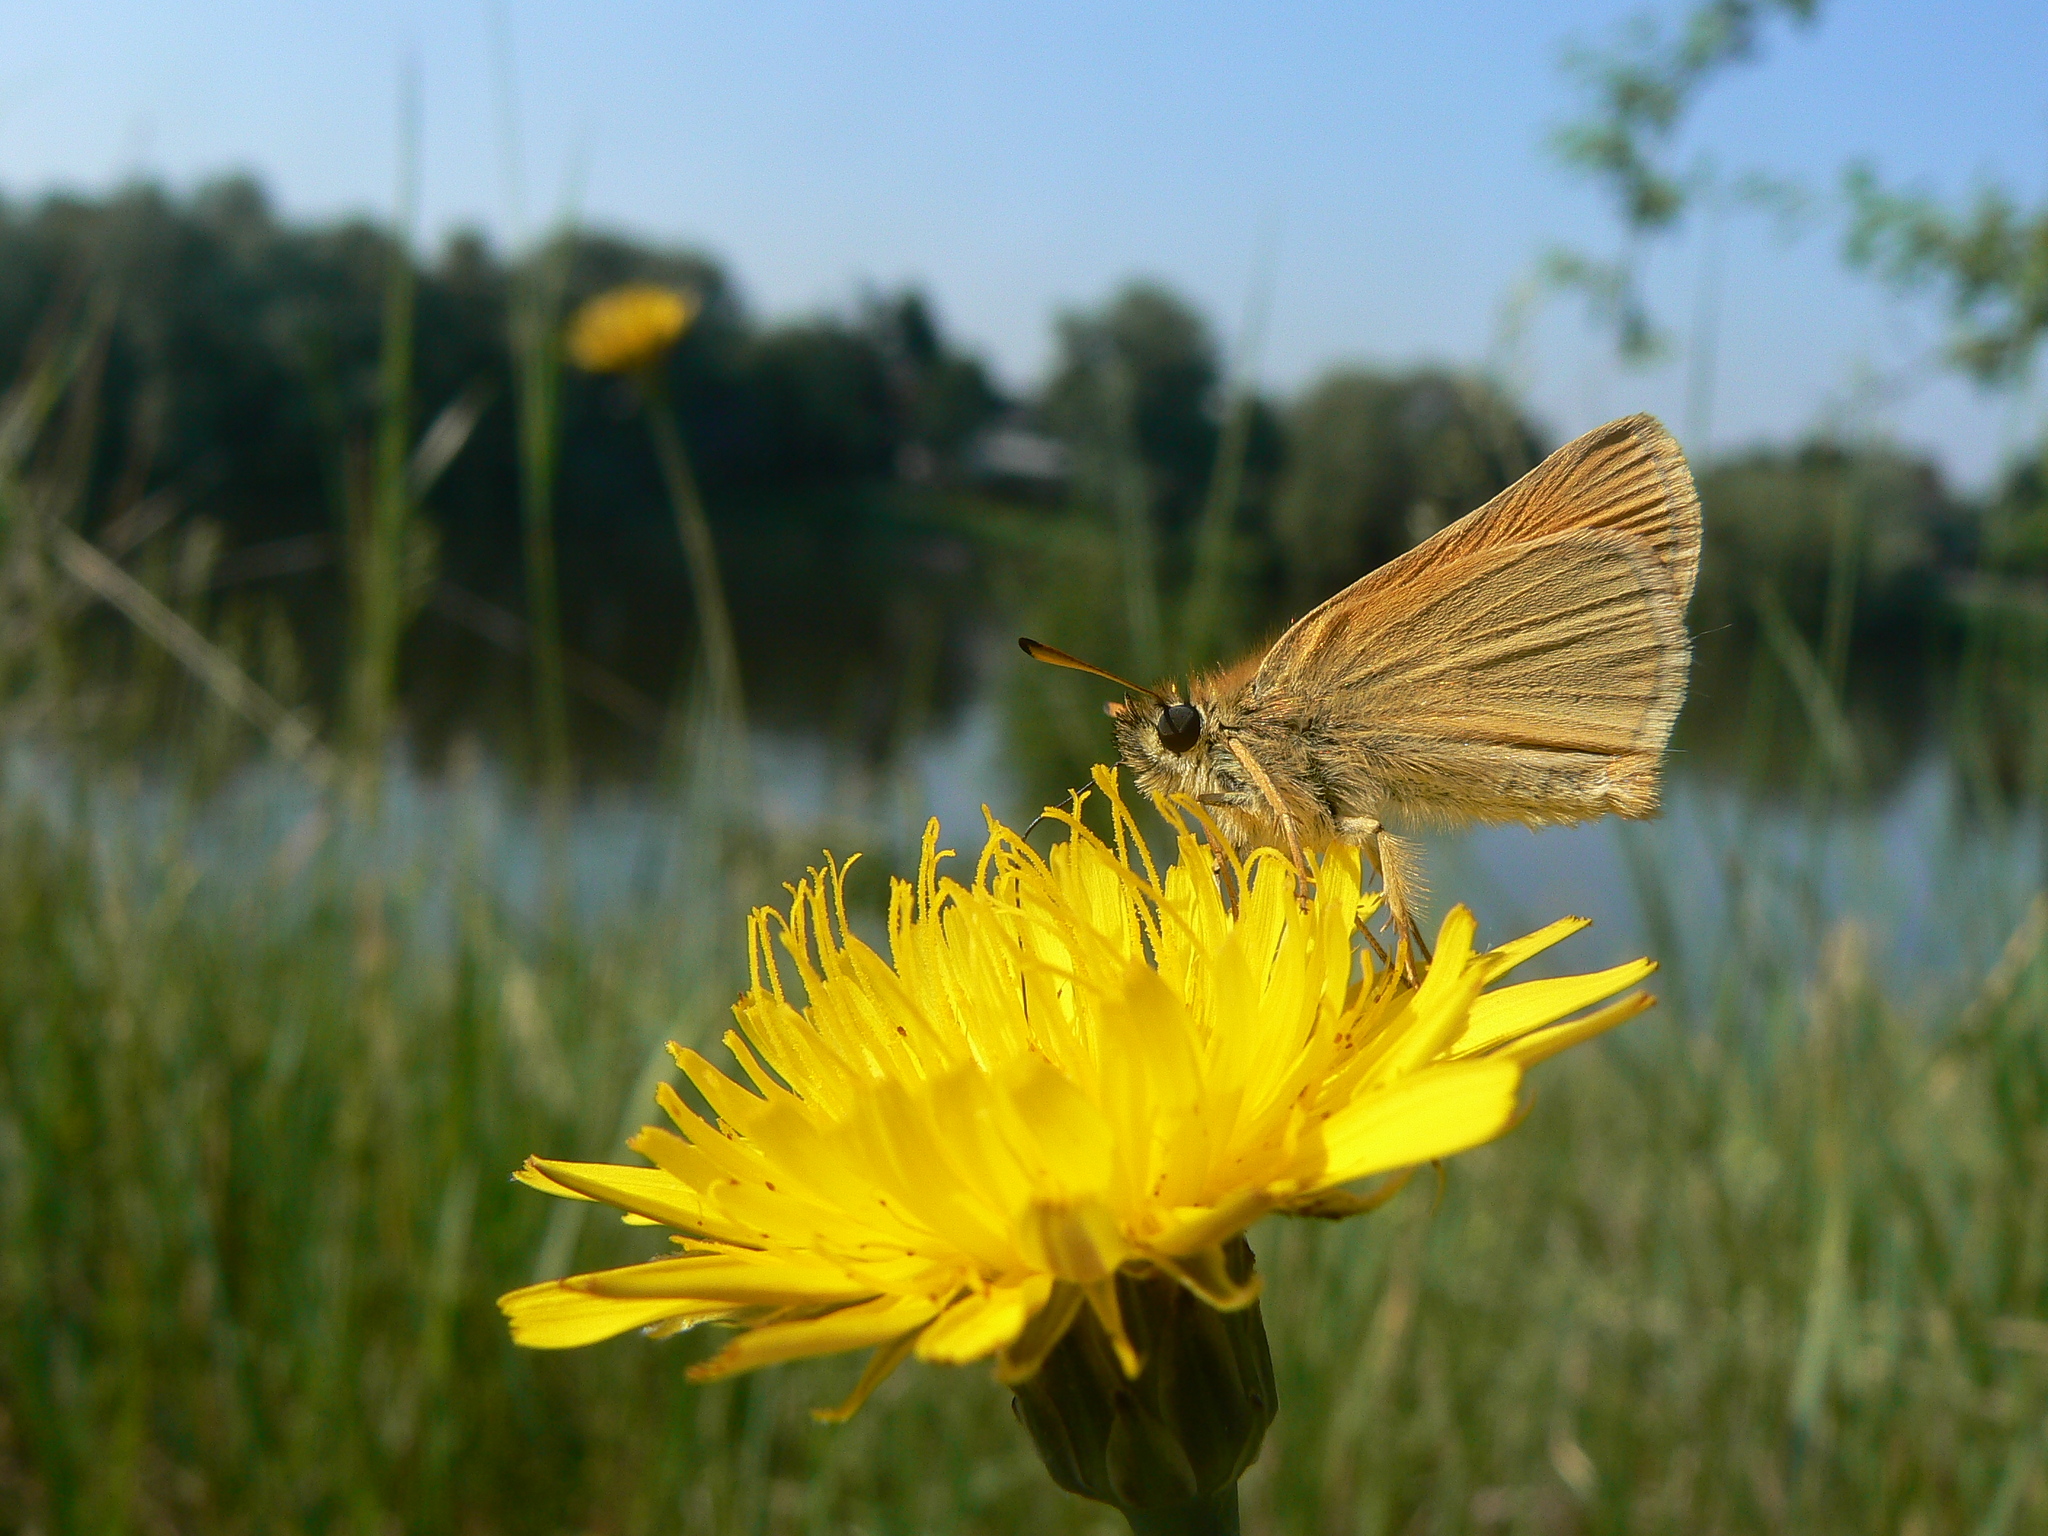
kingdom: Animalia
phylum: Arthropoda
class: Insecta
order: Lepidoptera
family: Hesperiidae
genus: Thymelicus
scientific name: Thymelicus lineola
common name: Essex skipper
